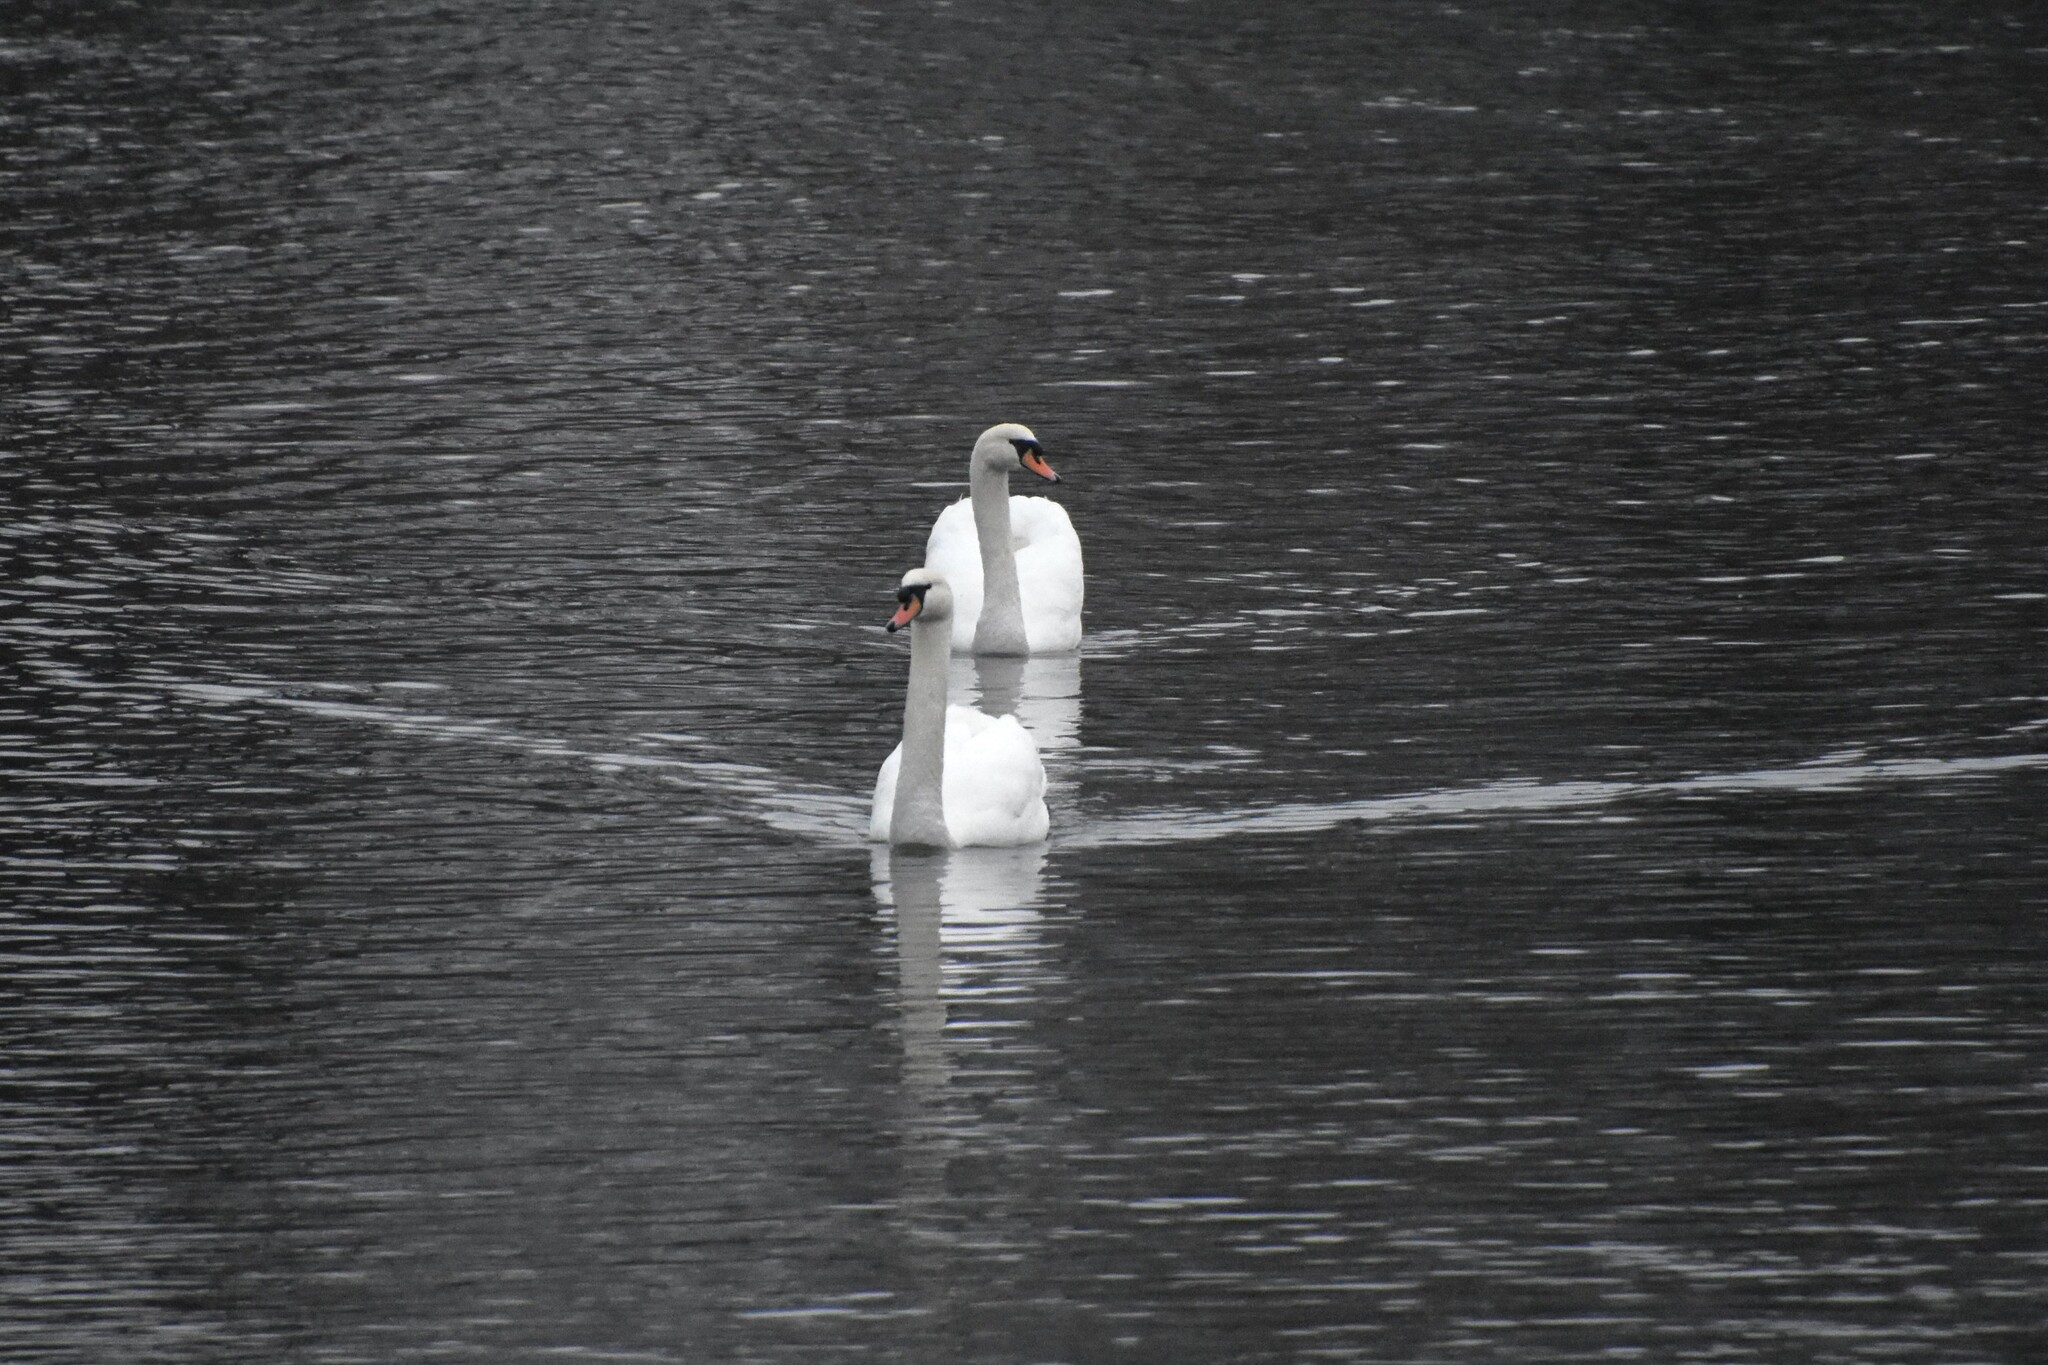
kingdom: Animalia
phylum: Chordata
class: Aves
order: Anseriformes
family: Anatidae
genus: Cygnus
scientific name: Cygnus olor
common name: Mute swan
